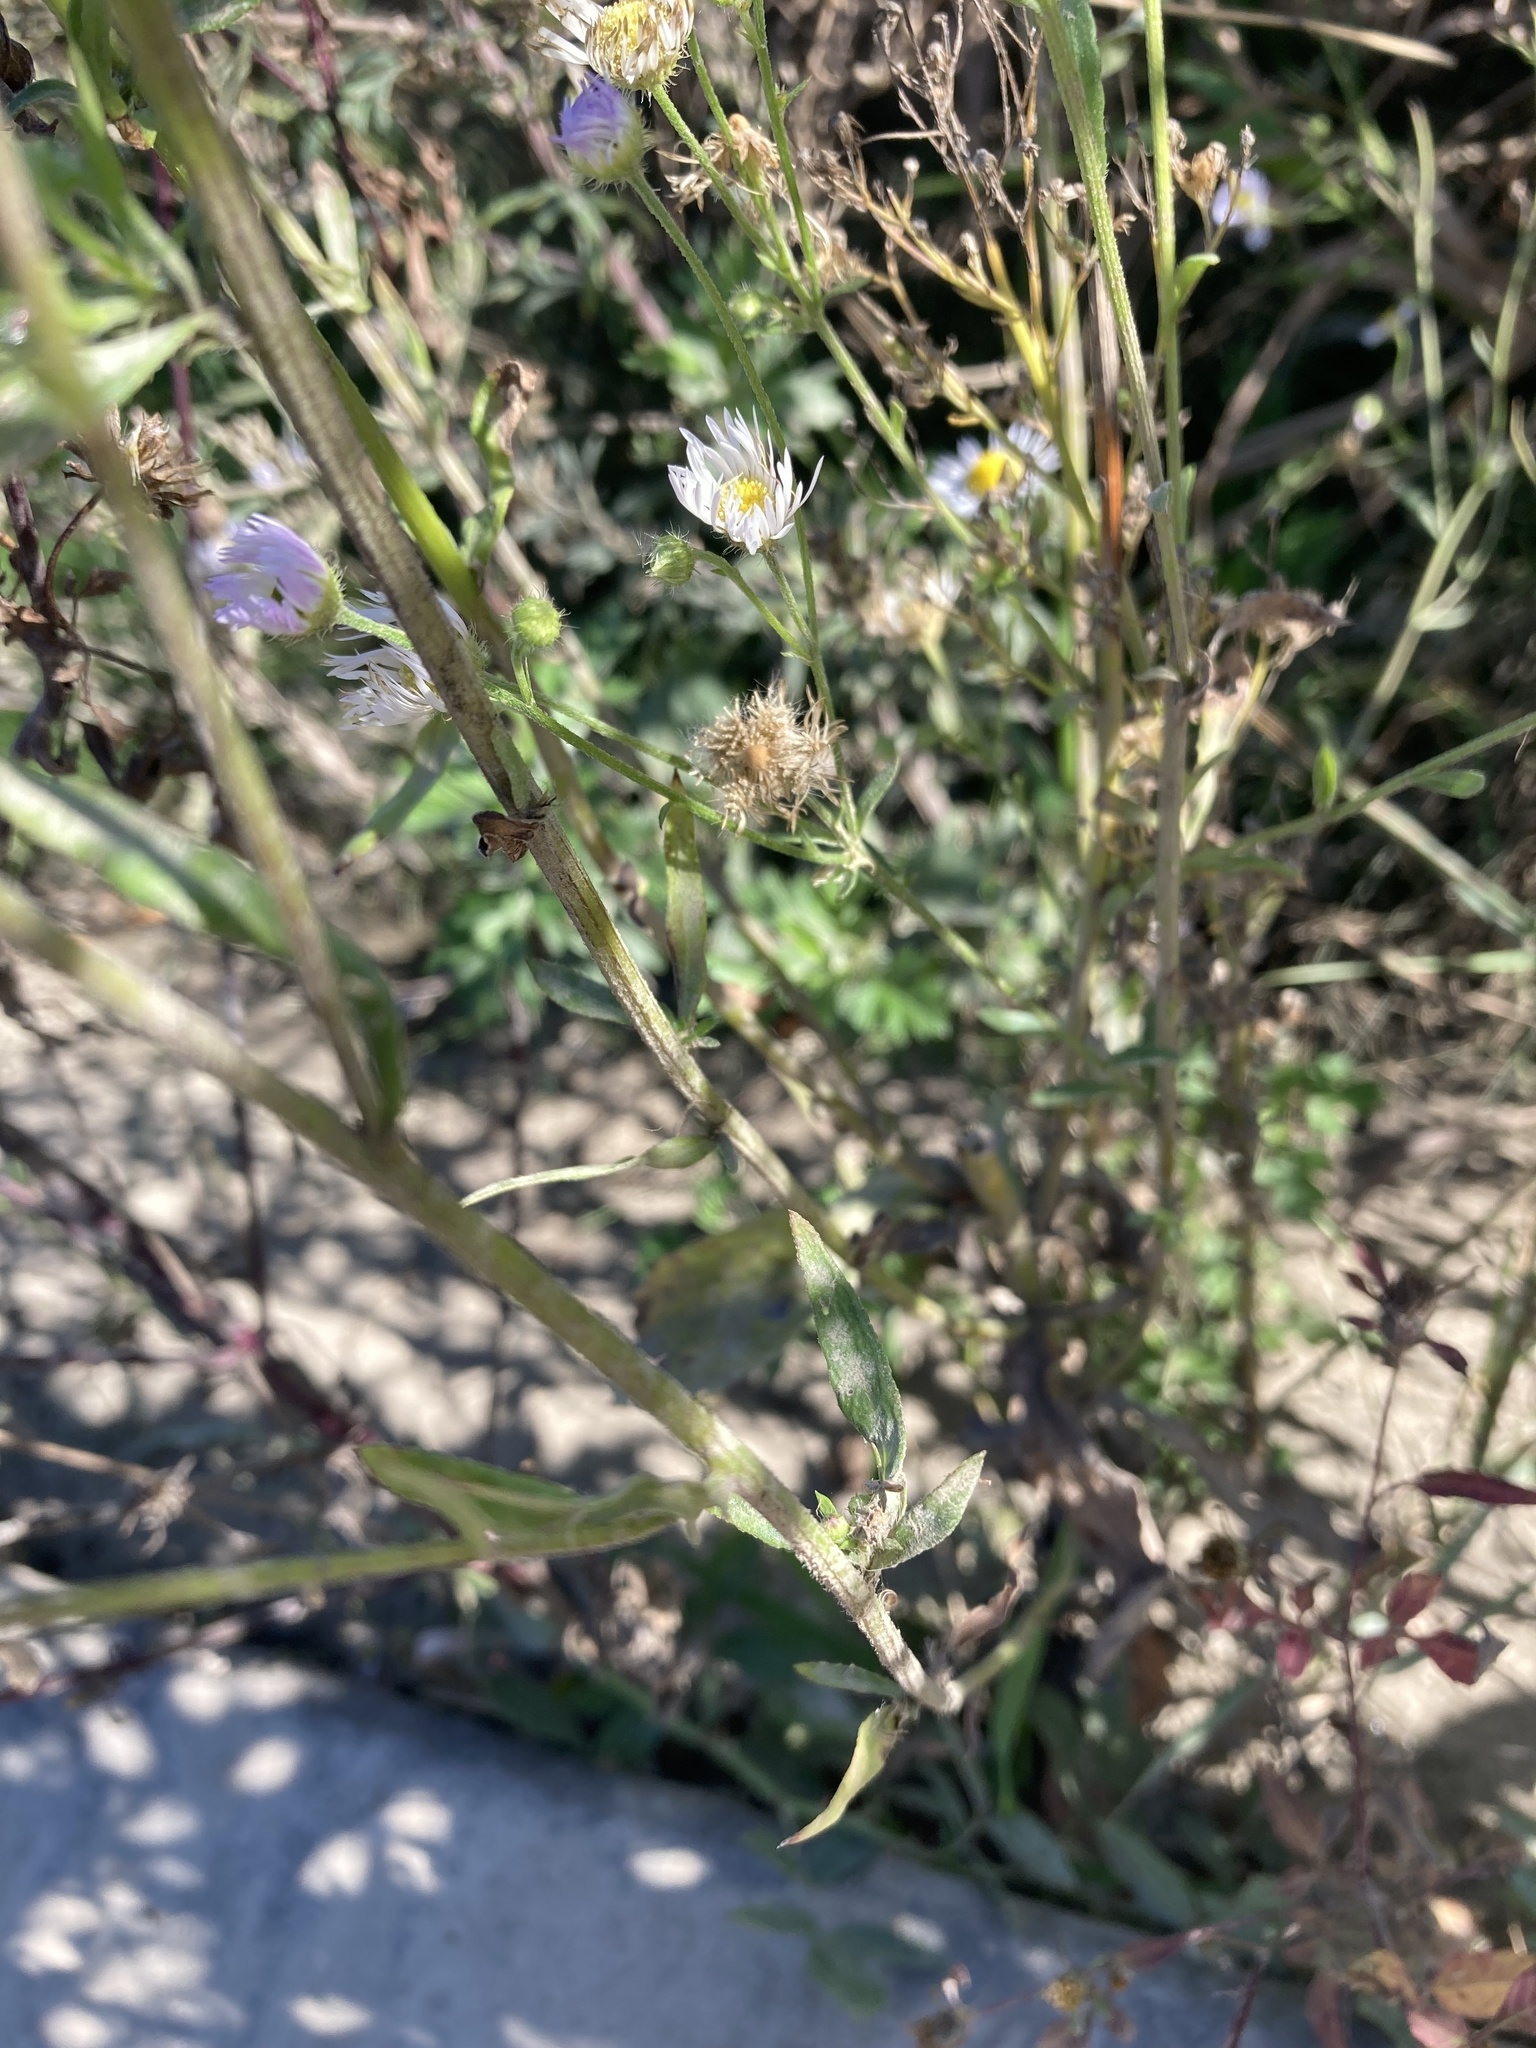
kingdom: Plantae
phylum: Tracheophyta
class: Magnoliopsida
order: Asterales
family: Asteraceae
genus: Erigeron
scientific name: Erigeron annuus
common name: Tall fleabane
